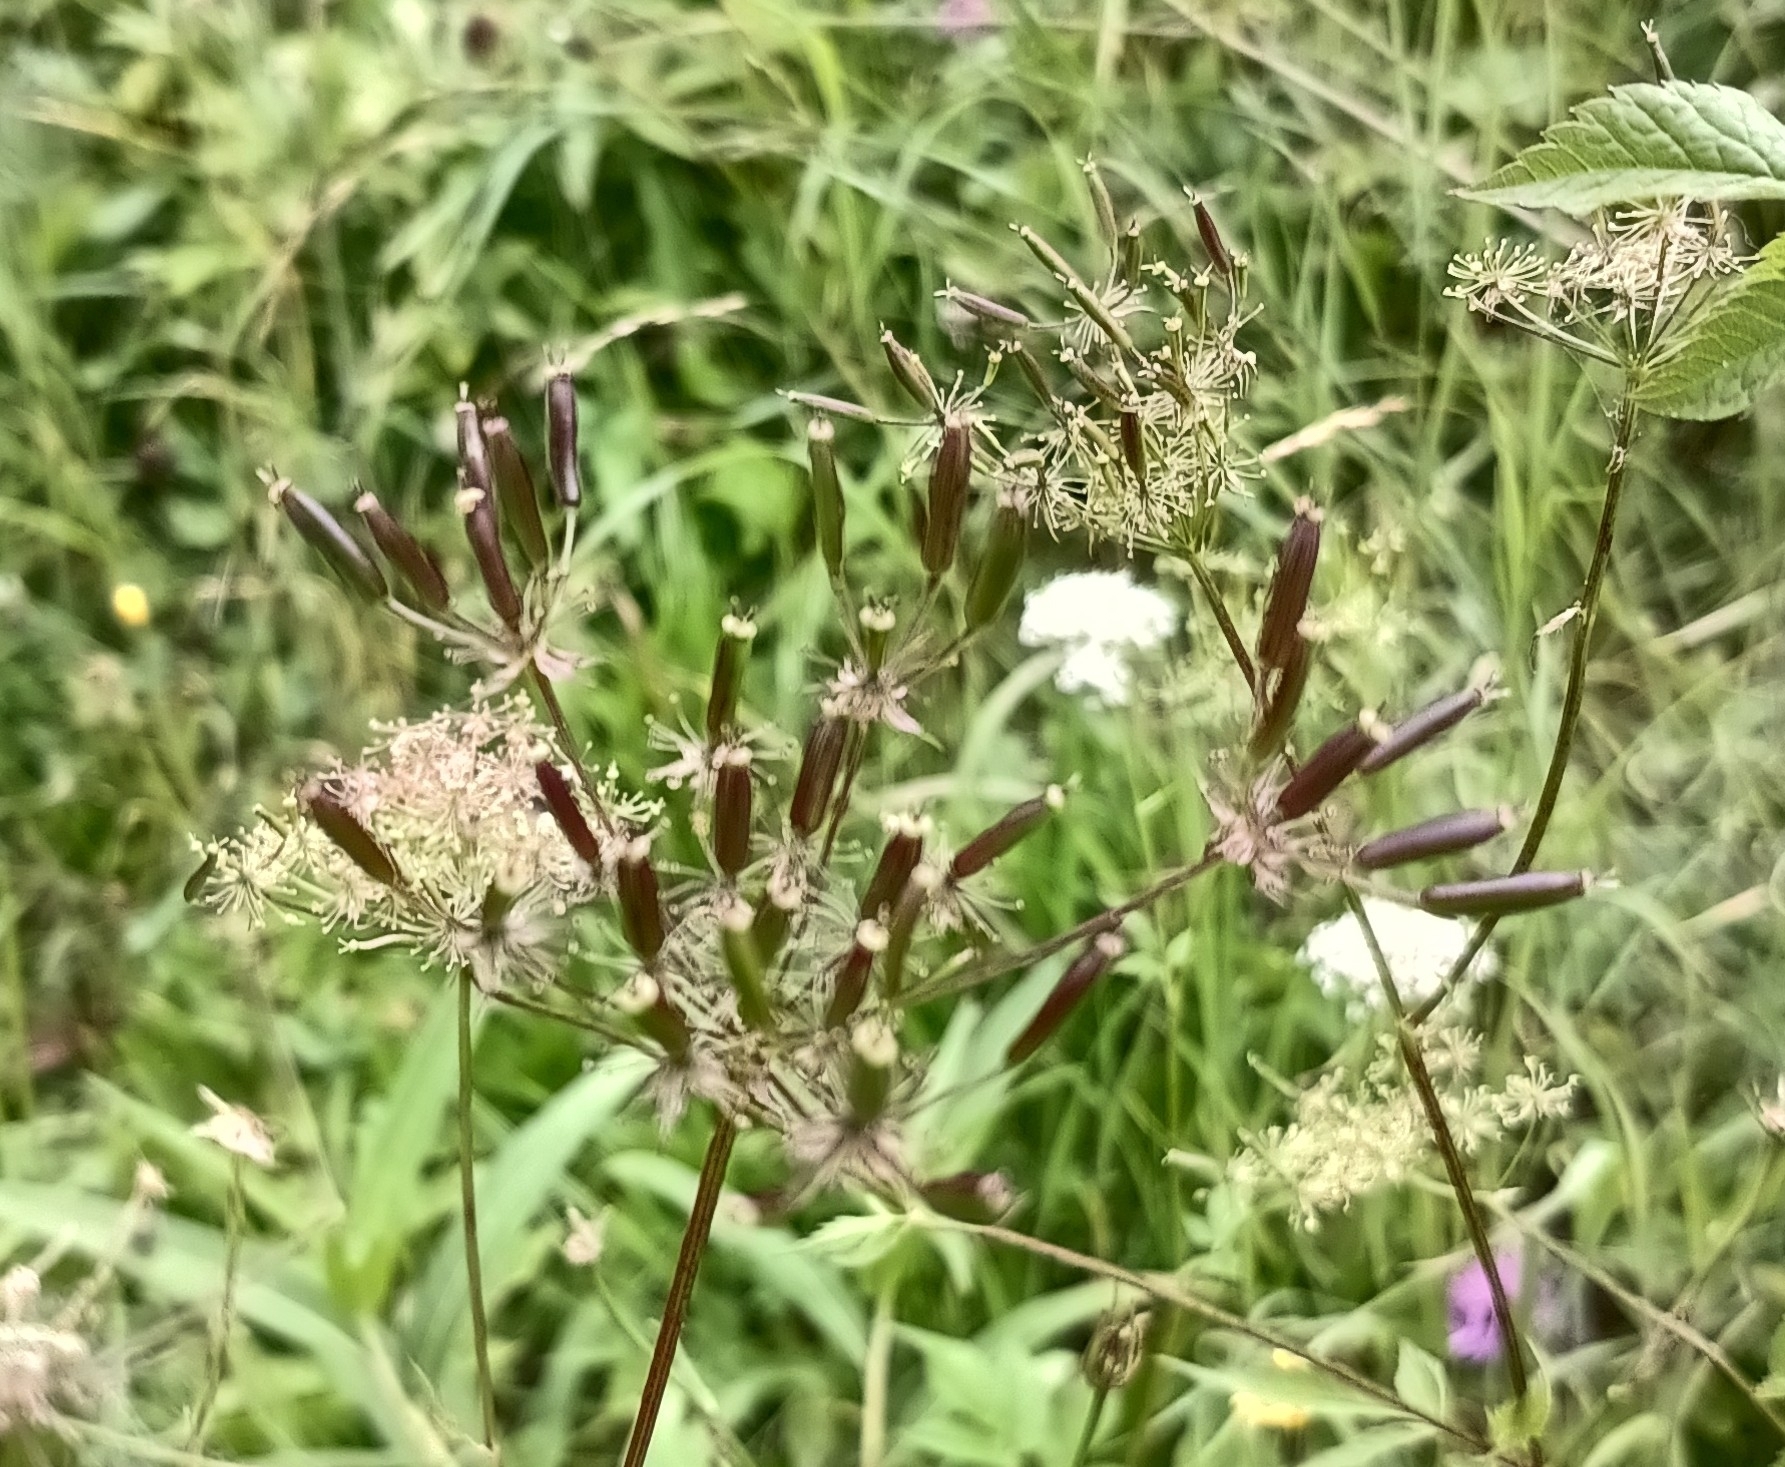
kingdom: Plantae
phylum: Tracheophyta
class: Magnoliopsida
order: Apiales
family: Apiaceae
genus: Chaerophyllum
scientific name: Chaerophyllum aromaticum
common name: Broadleaf chervil
